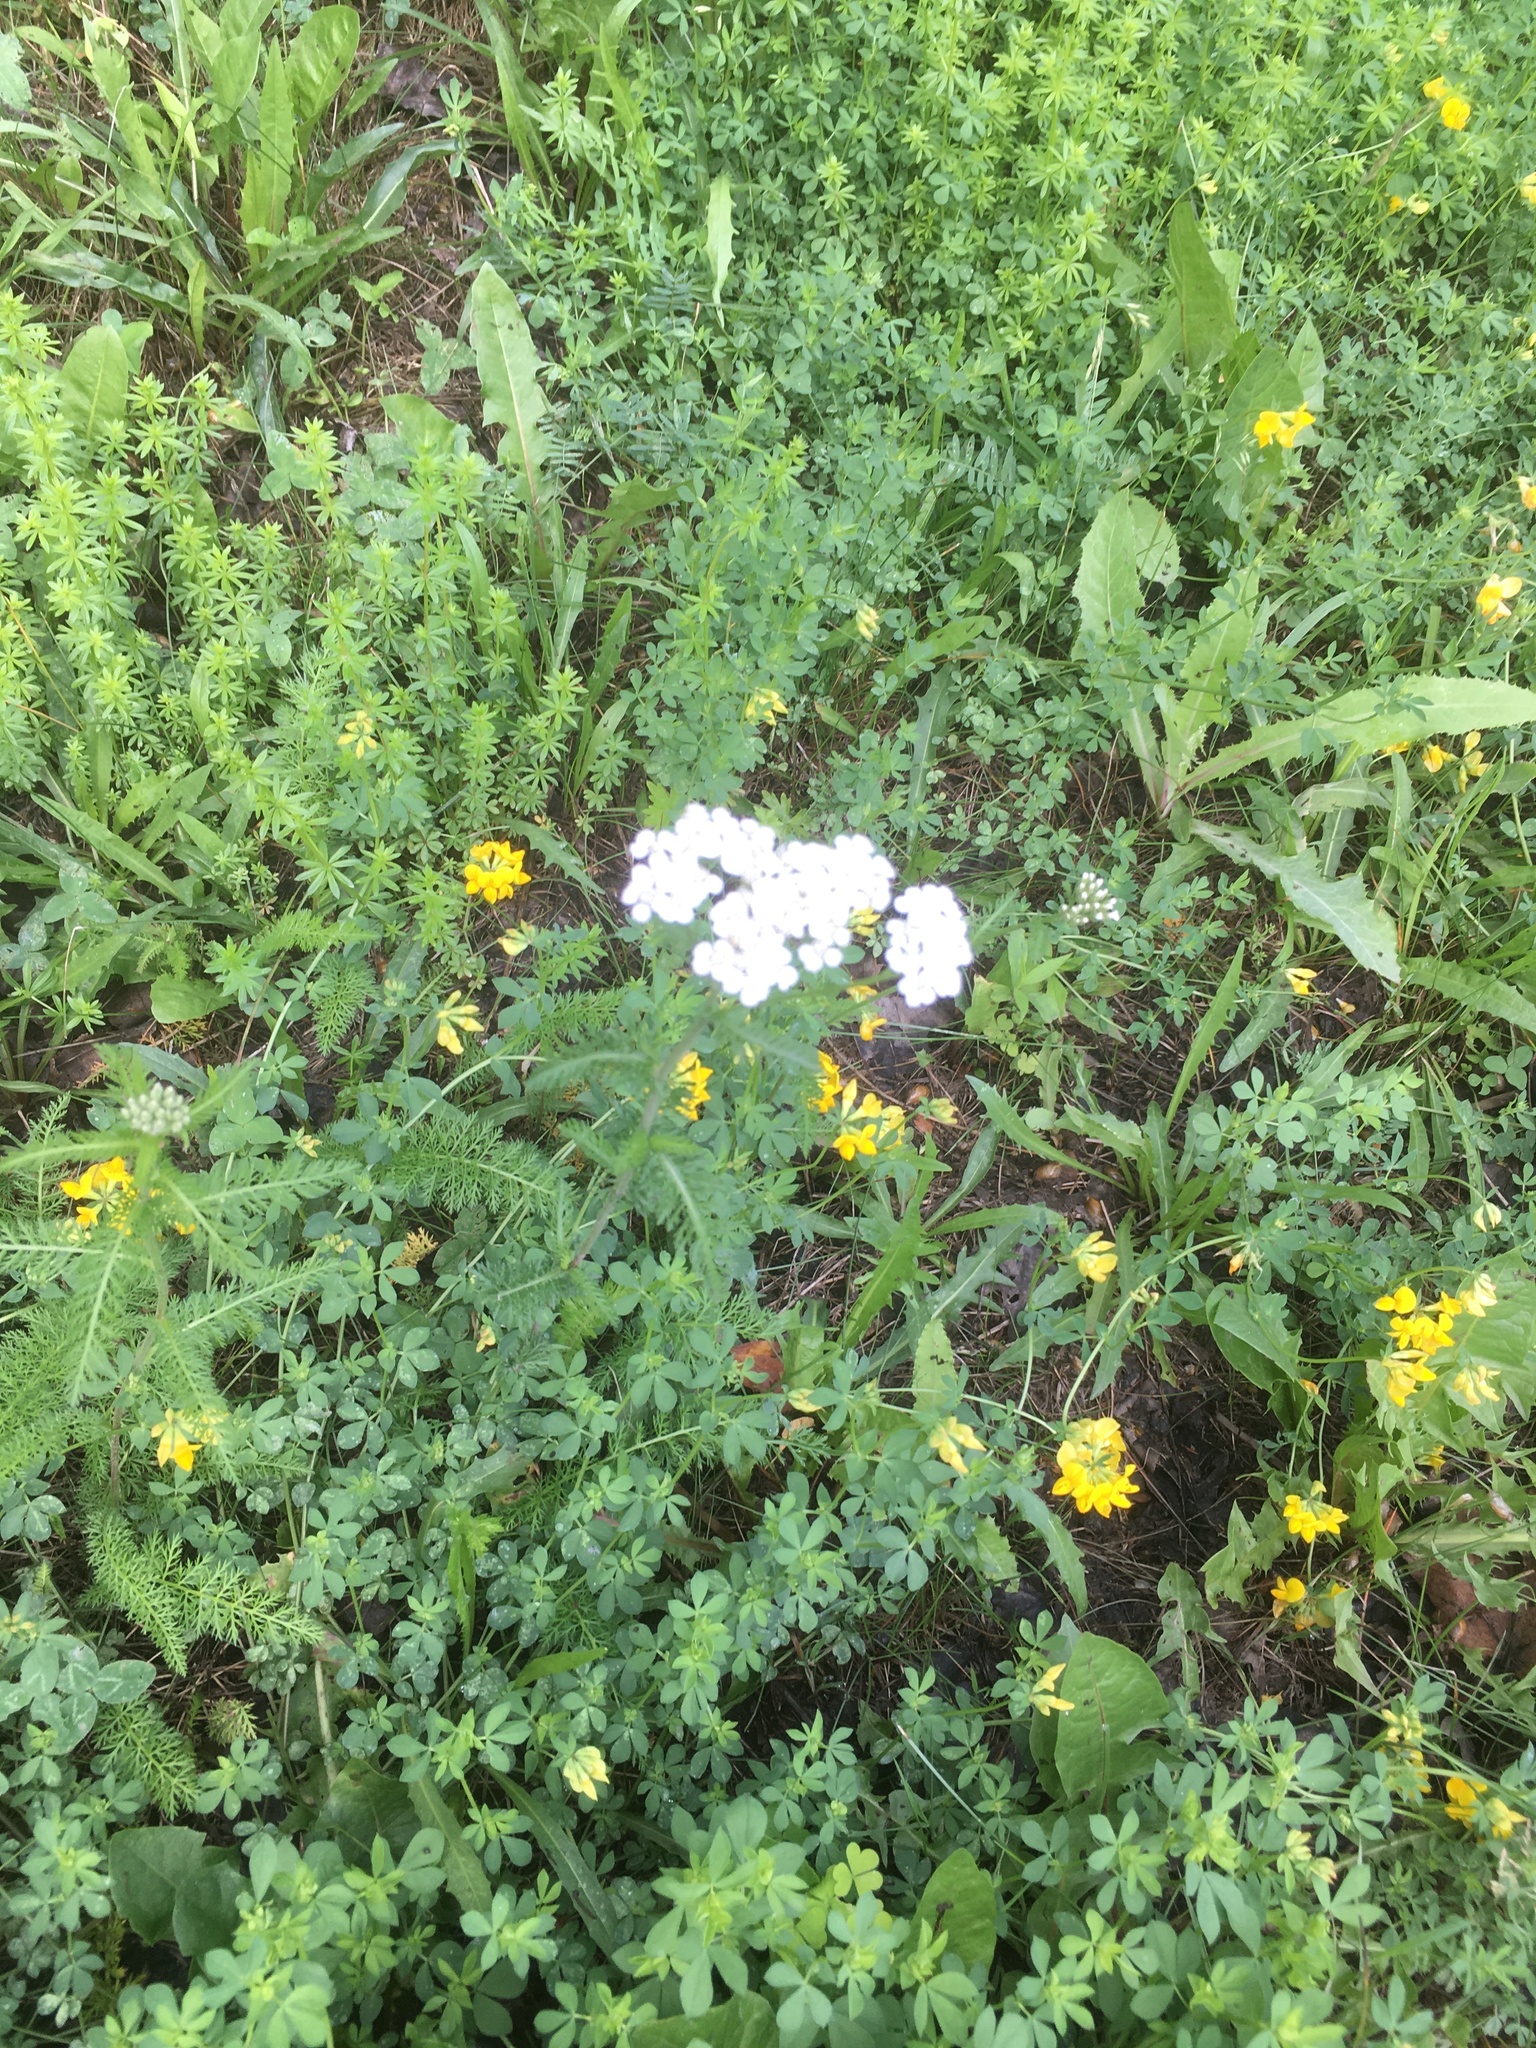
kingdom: Plantae
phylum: Tracheophyta
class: Magnoliopsida
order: Asterales
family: Asteraceae
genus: Achillea
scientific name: Achillea millefolium
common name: Yarrow
